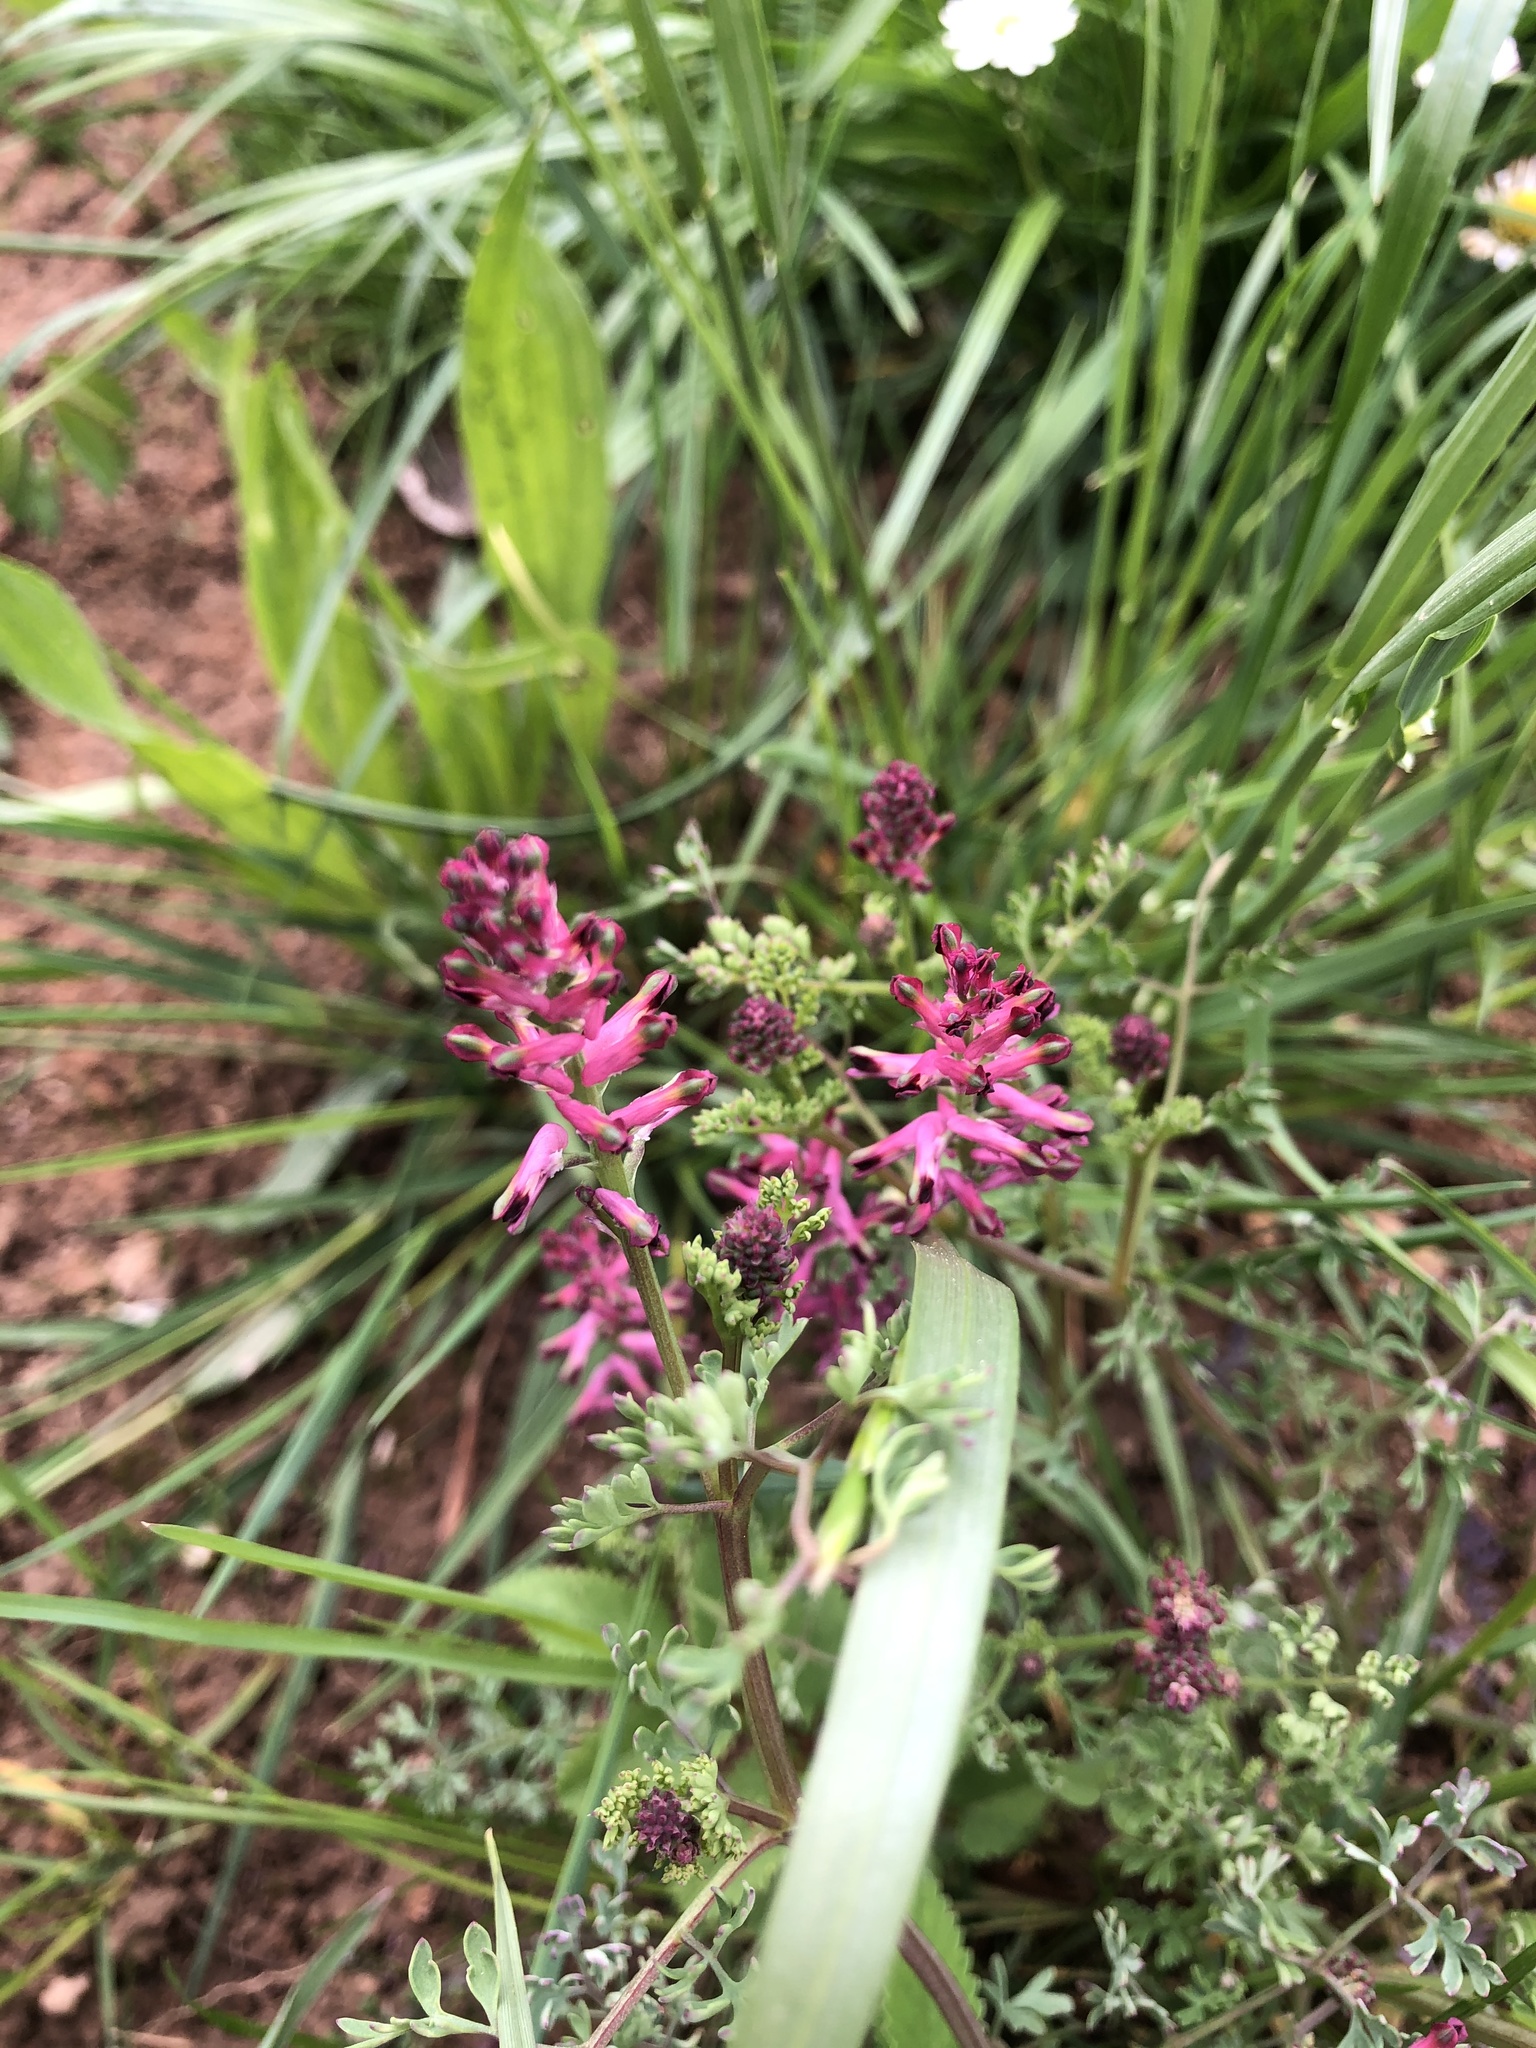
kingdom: Plantae
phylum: Tracheophyta
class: Magnoliopsida
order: Ranunculales
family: Papaveraceae
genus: Fumaria
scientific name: Fumaria officinalis
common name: Common fumitory
